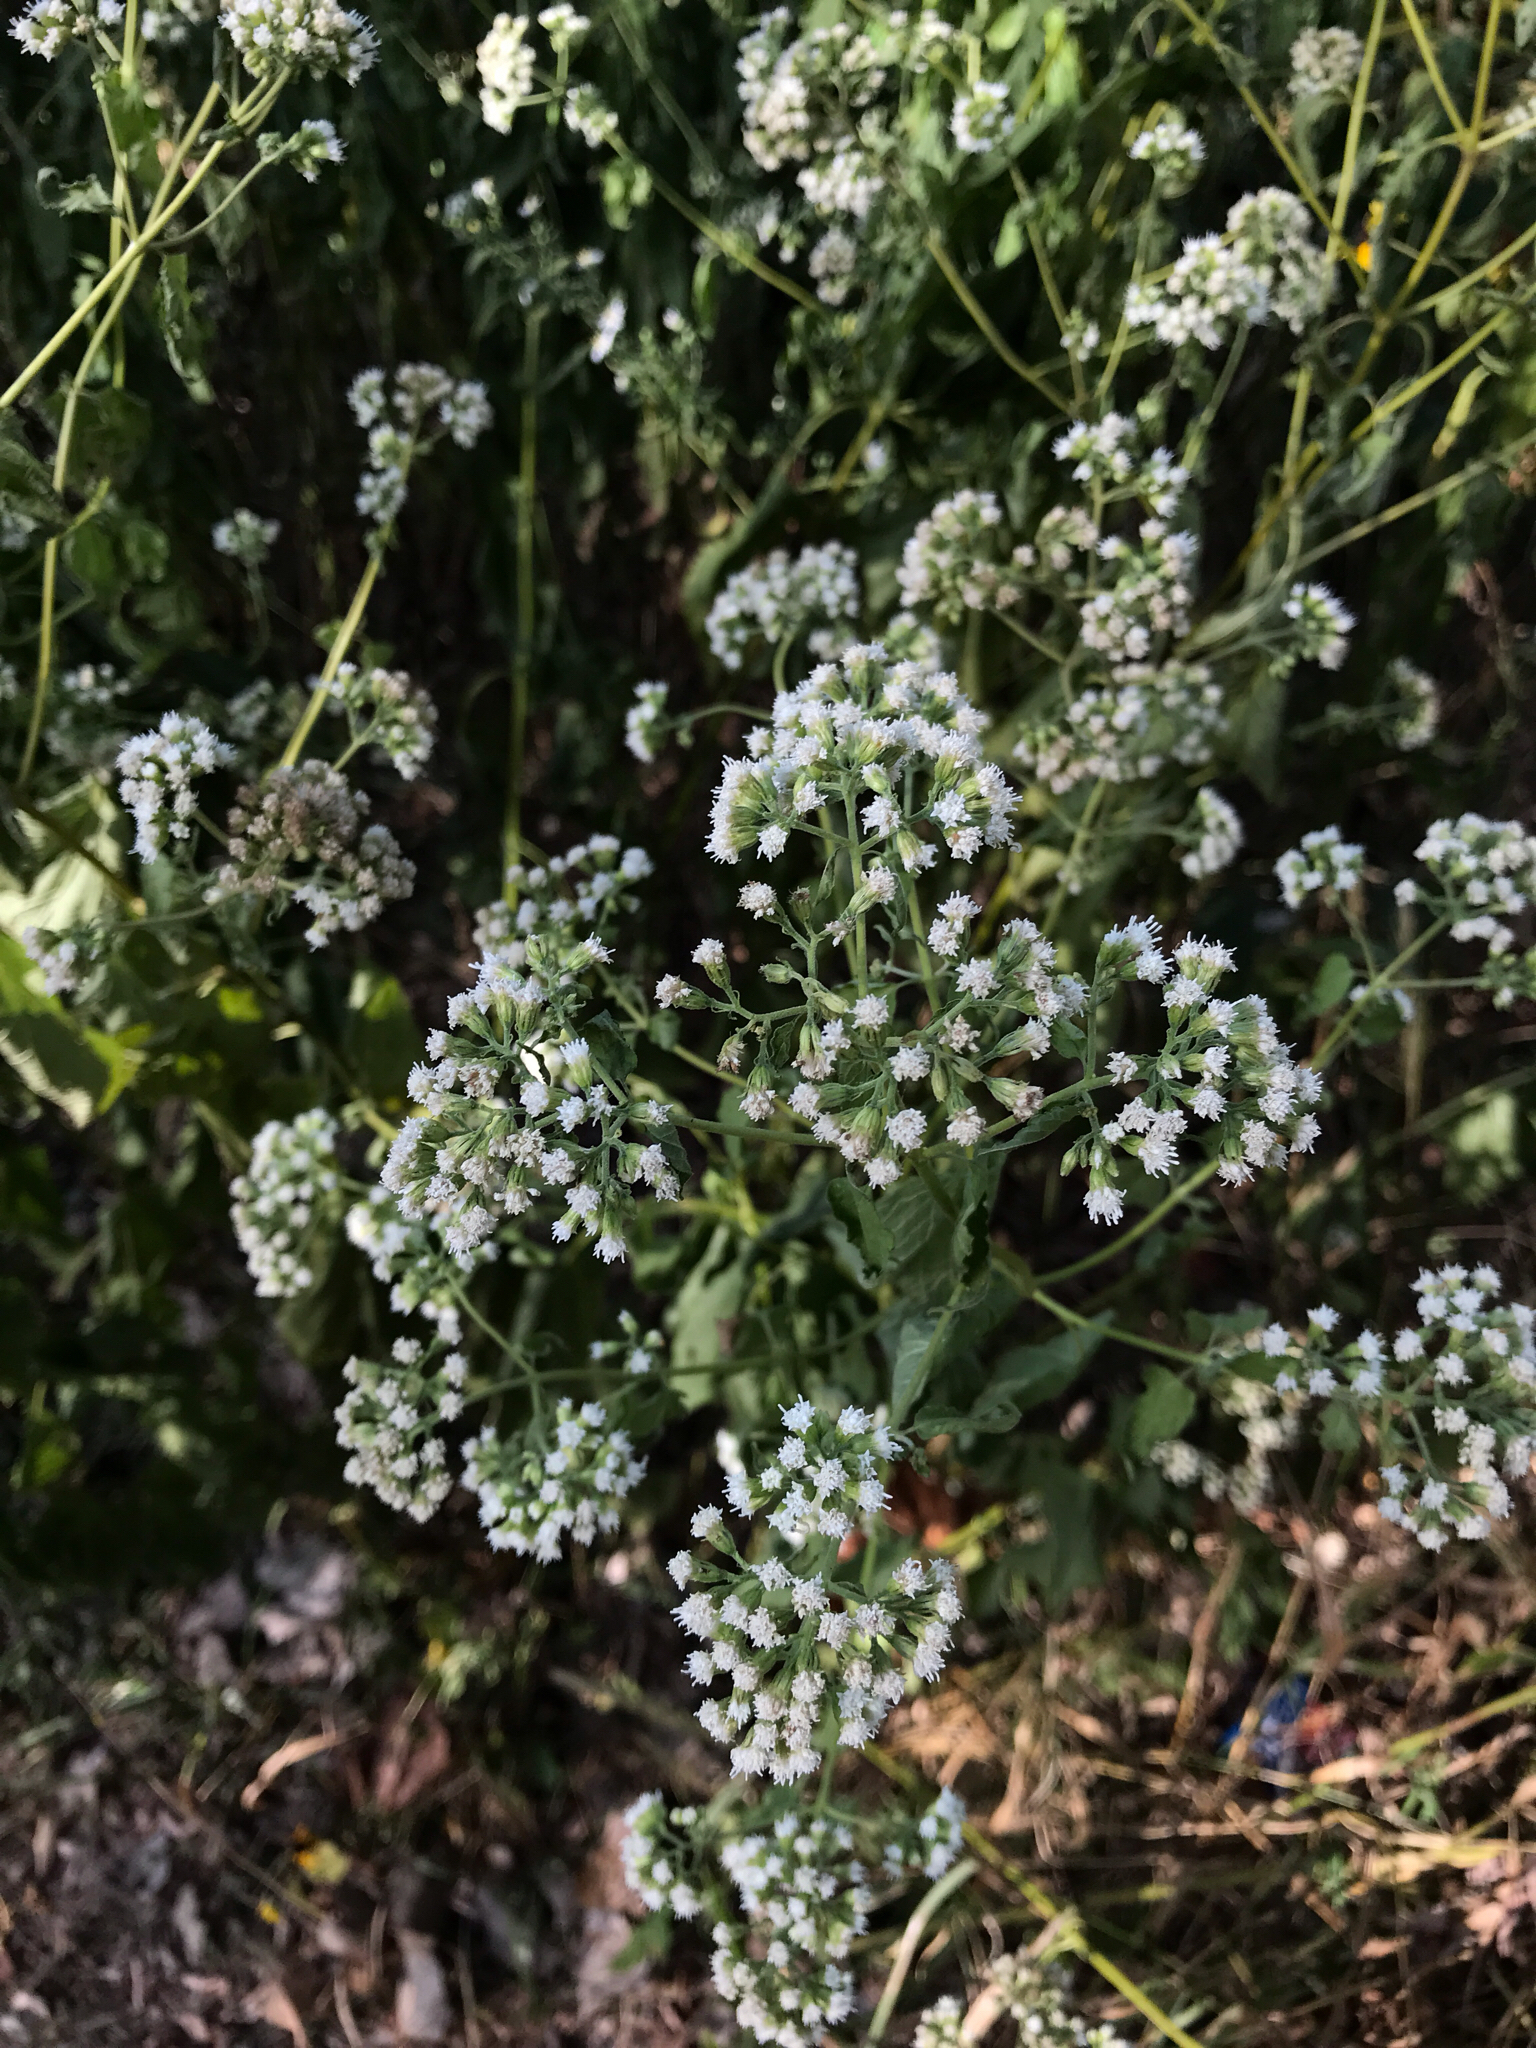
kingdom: Plantae
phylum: Tracheophyta
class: Magnoliopsida
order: Asterales
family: Asteraceae
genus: Ageratina
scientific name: Ageratina altissima
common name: White snakeroot
